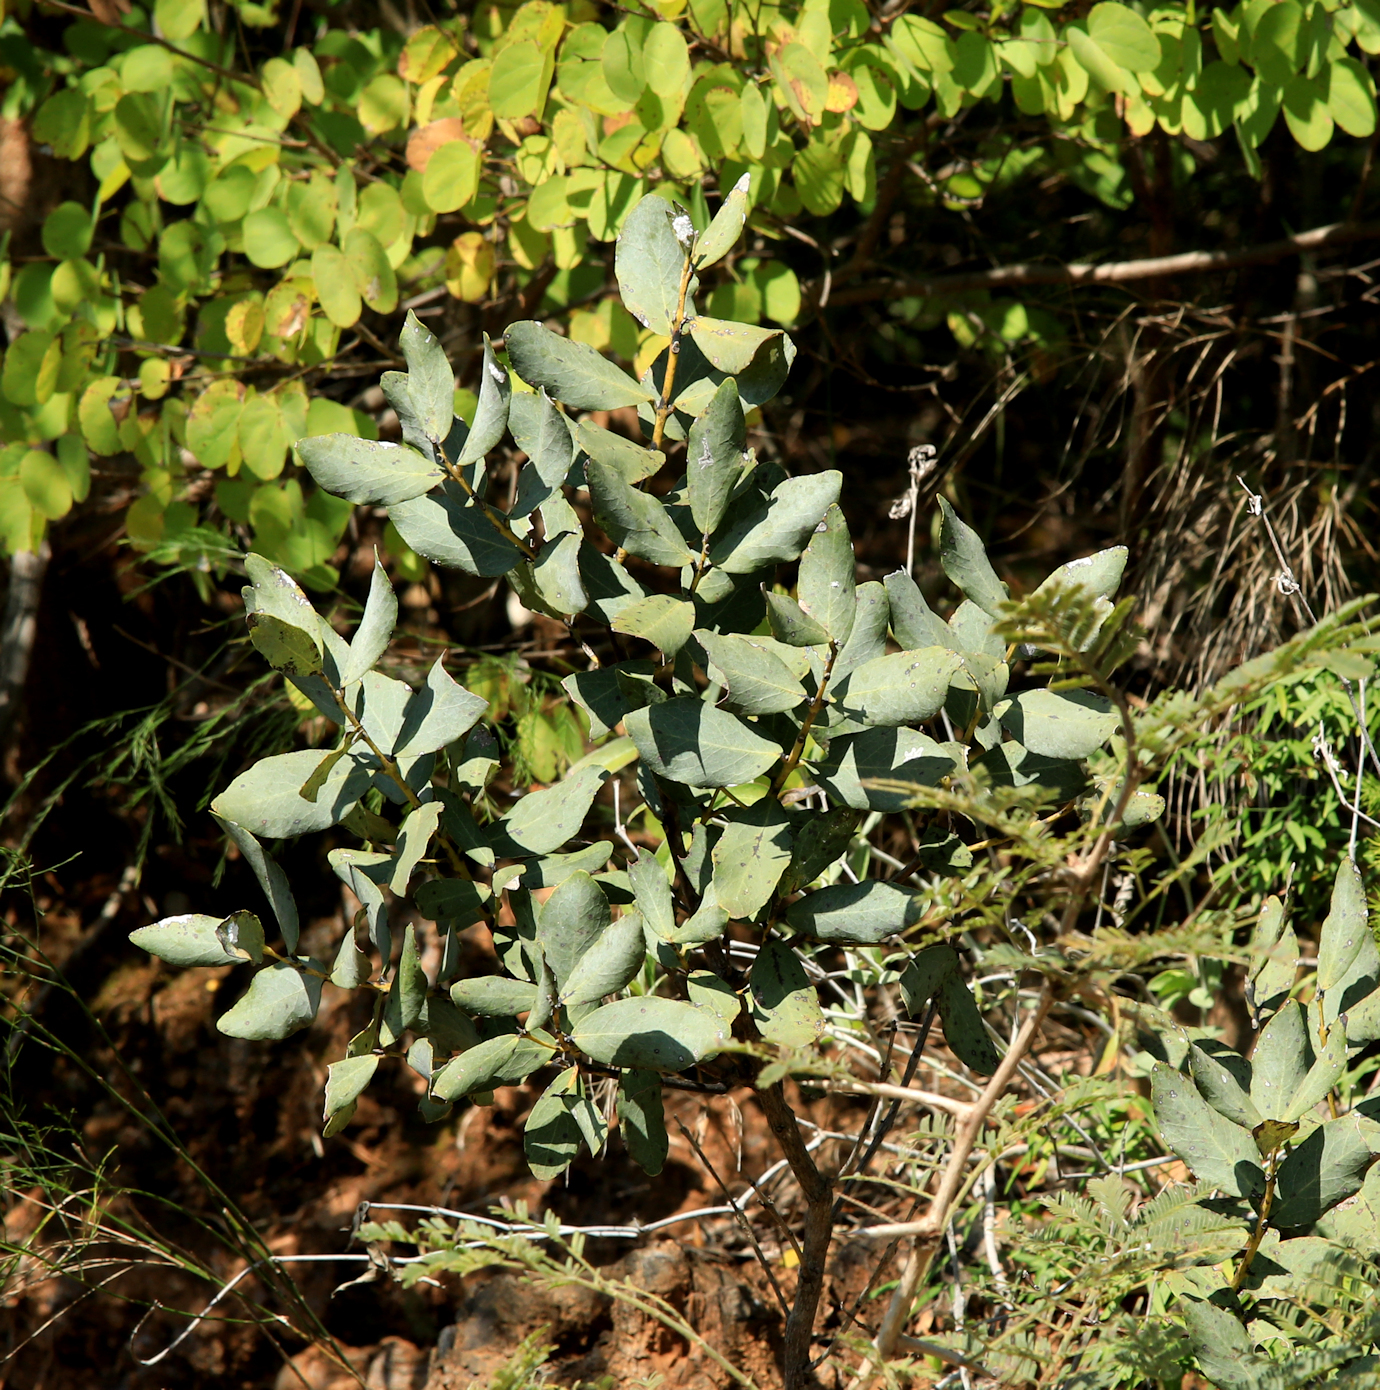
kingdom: Plantae
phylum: Tracheophyta
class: Magnoliopsida
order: Ericales
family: Ebenaceae
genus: Euclea
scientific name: Euclea crispa
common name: Blue guarri
